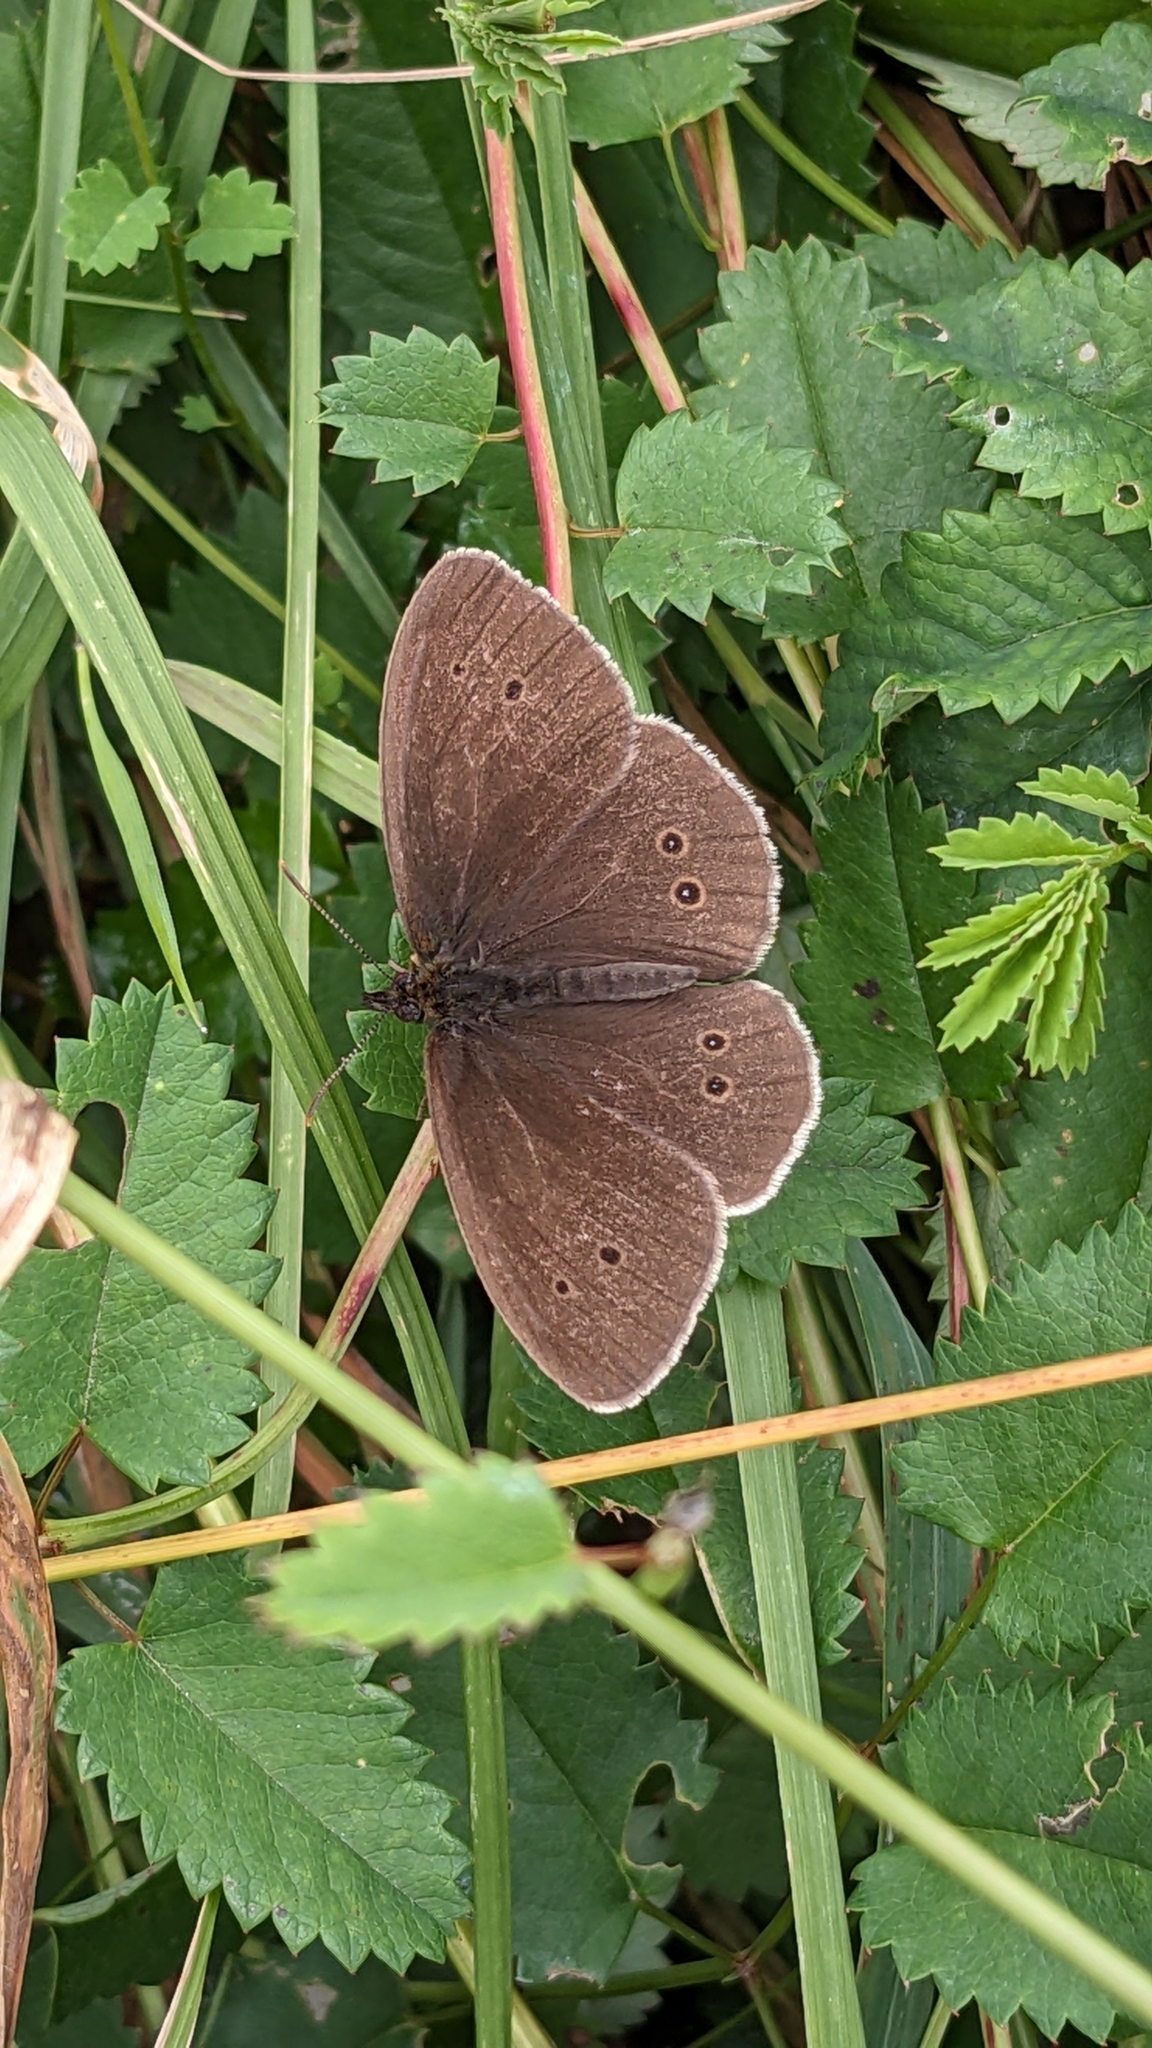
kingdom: Animalia
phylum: Arthropoda
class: Insecta
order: Lepidoptera
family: Nymphalidae
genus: Aphantopus
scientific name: Aphantopus hyperantus
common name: Ringlet
